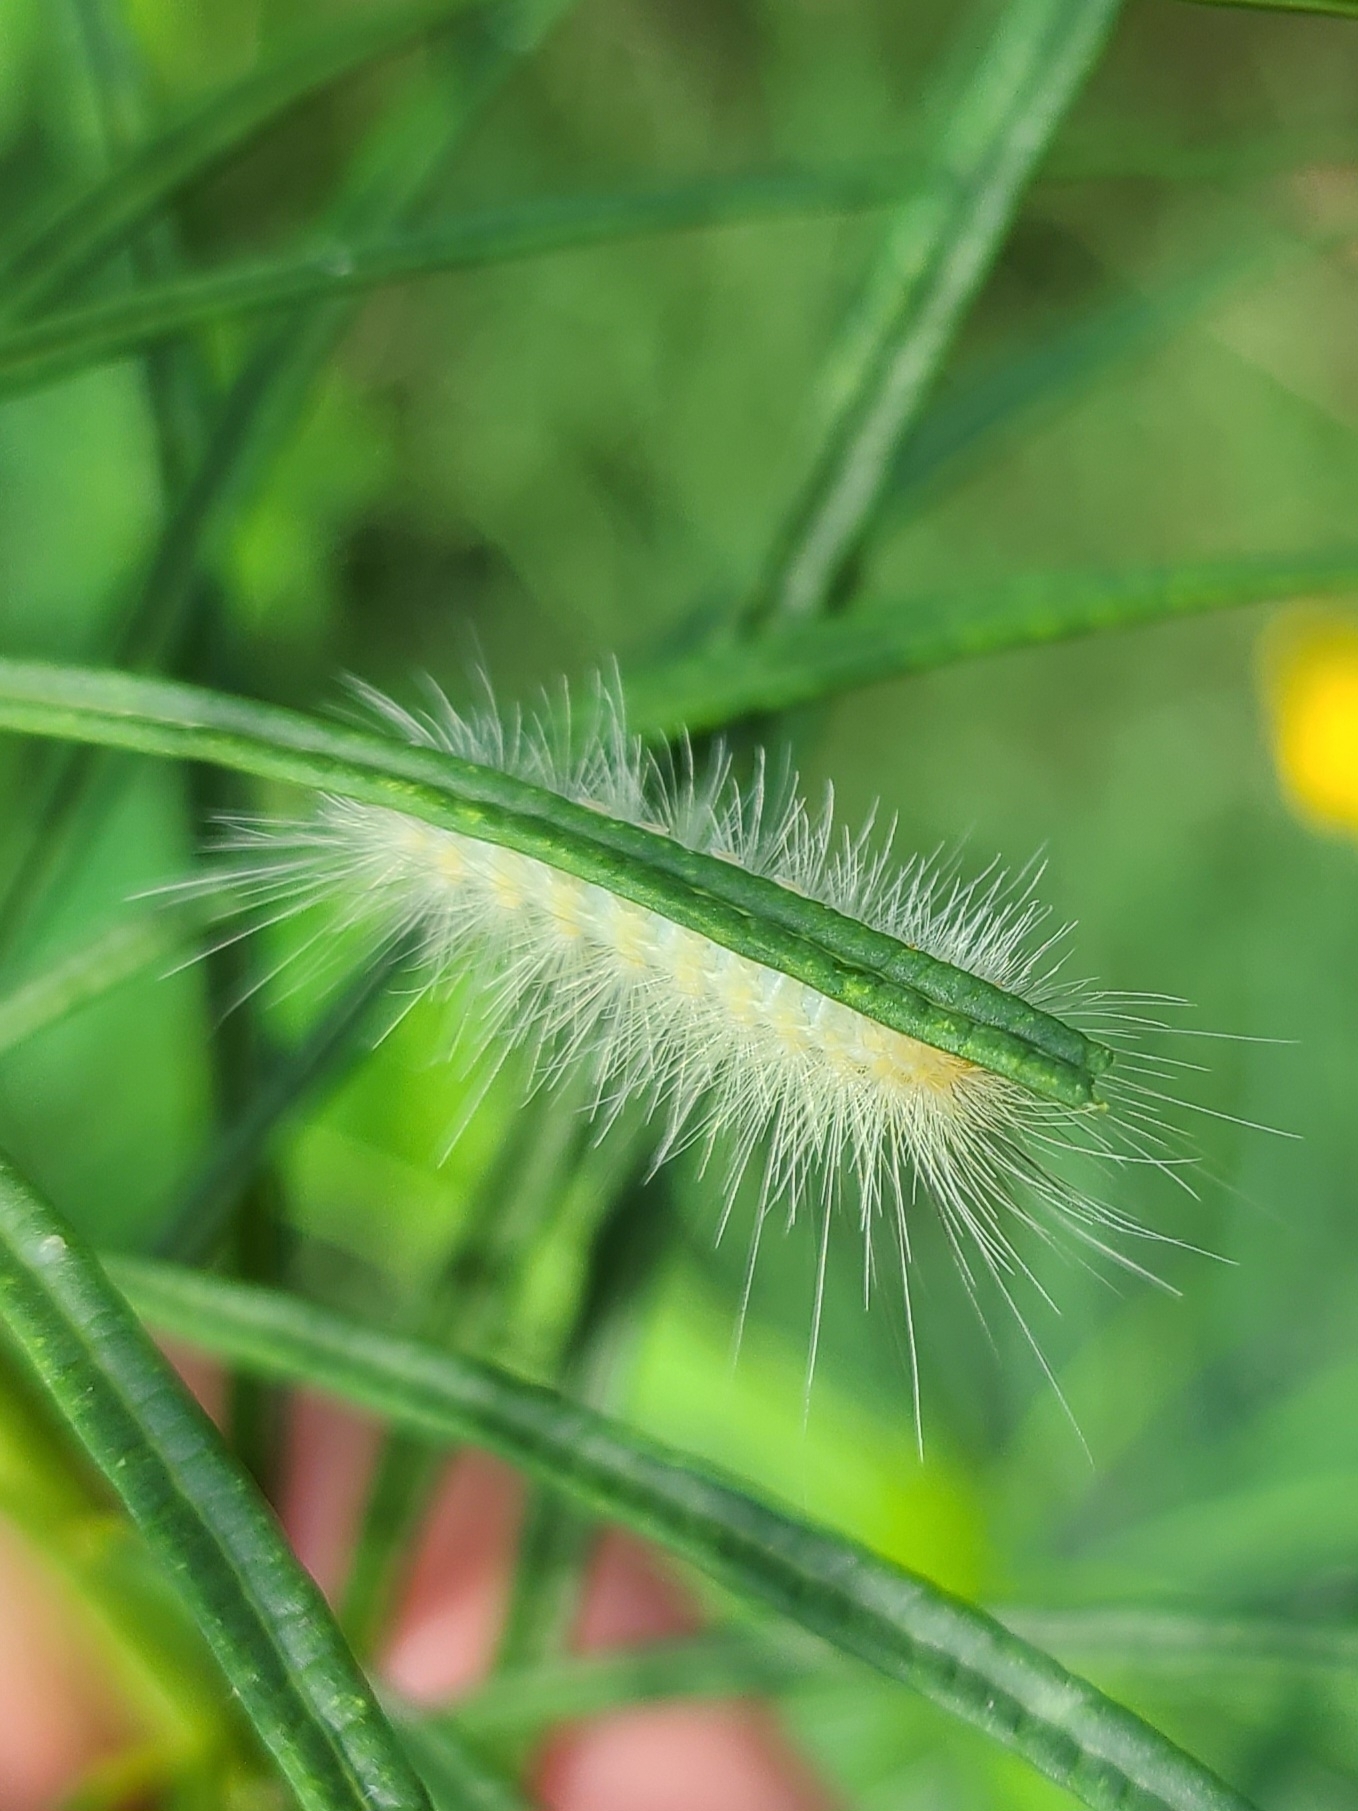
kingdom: Animalia
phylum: Arthropoda
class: Insecta
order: Lepidoptera
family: Erebidae
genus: Spilosoma
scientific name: Spilosoma virginica
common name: Virginia tiger moth
